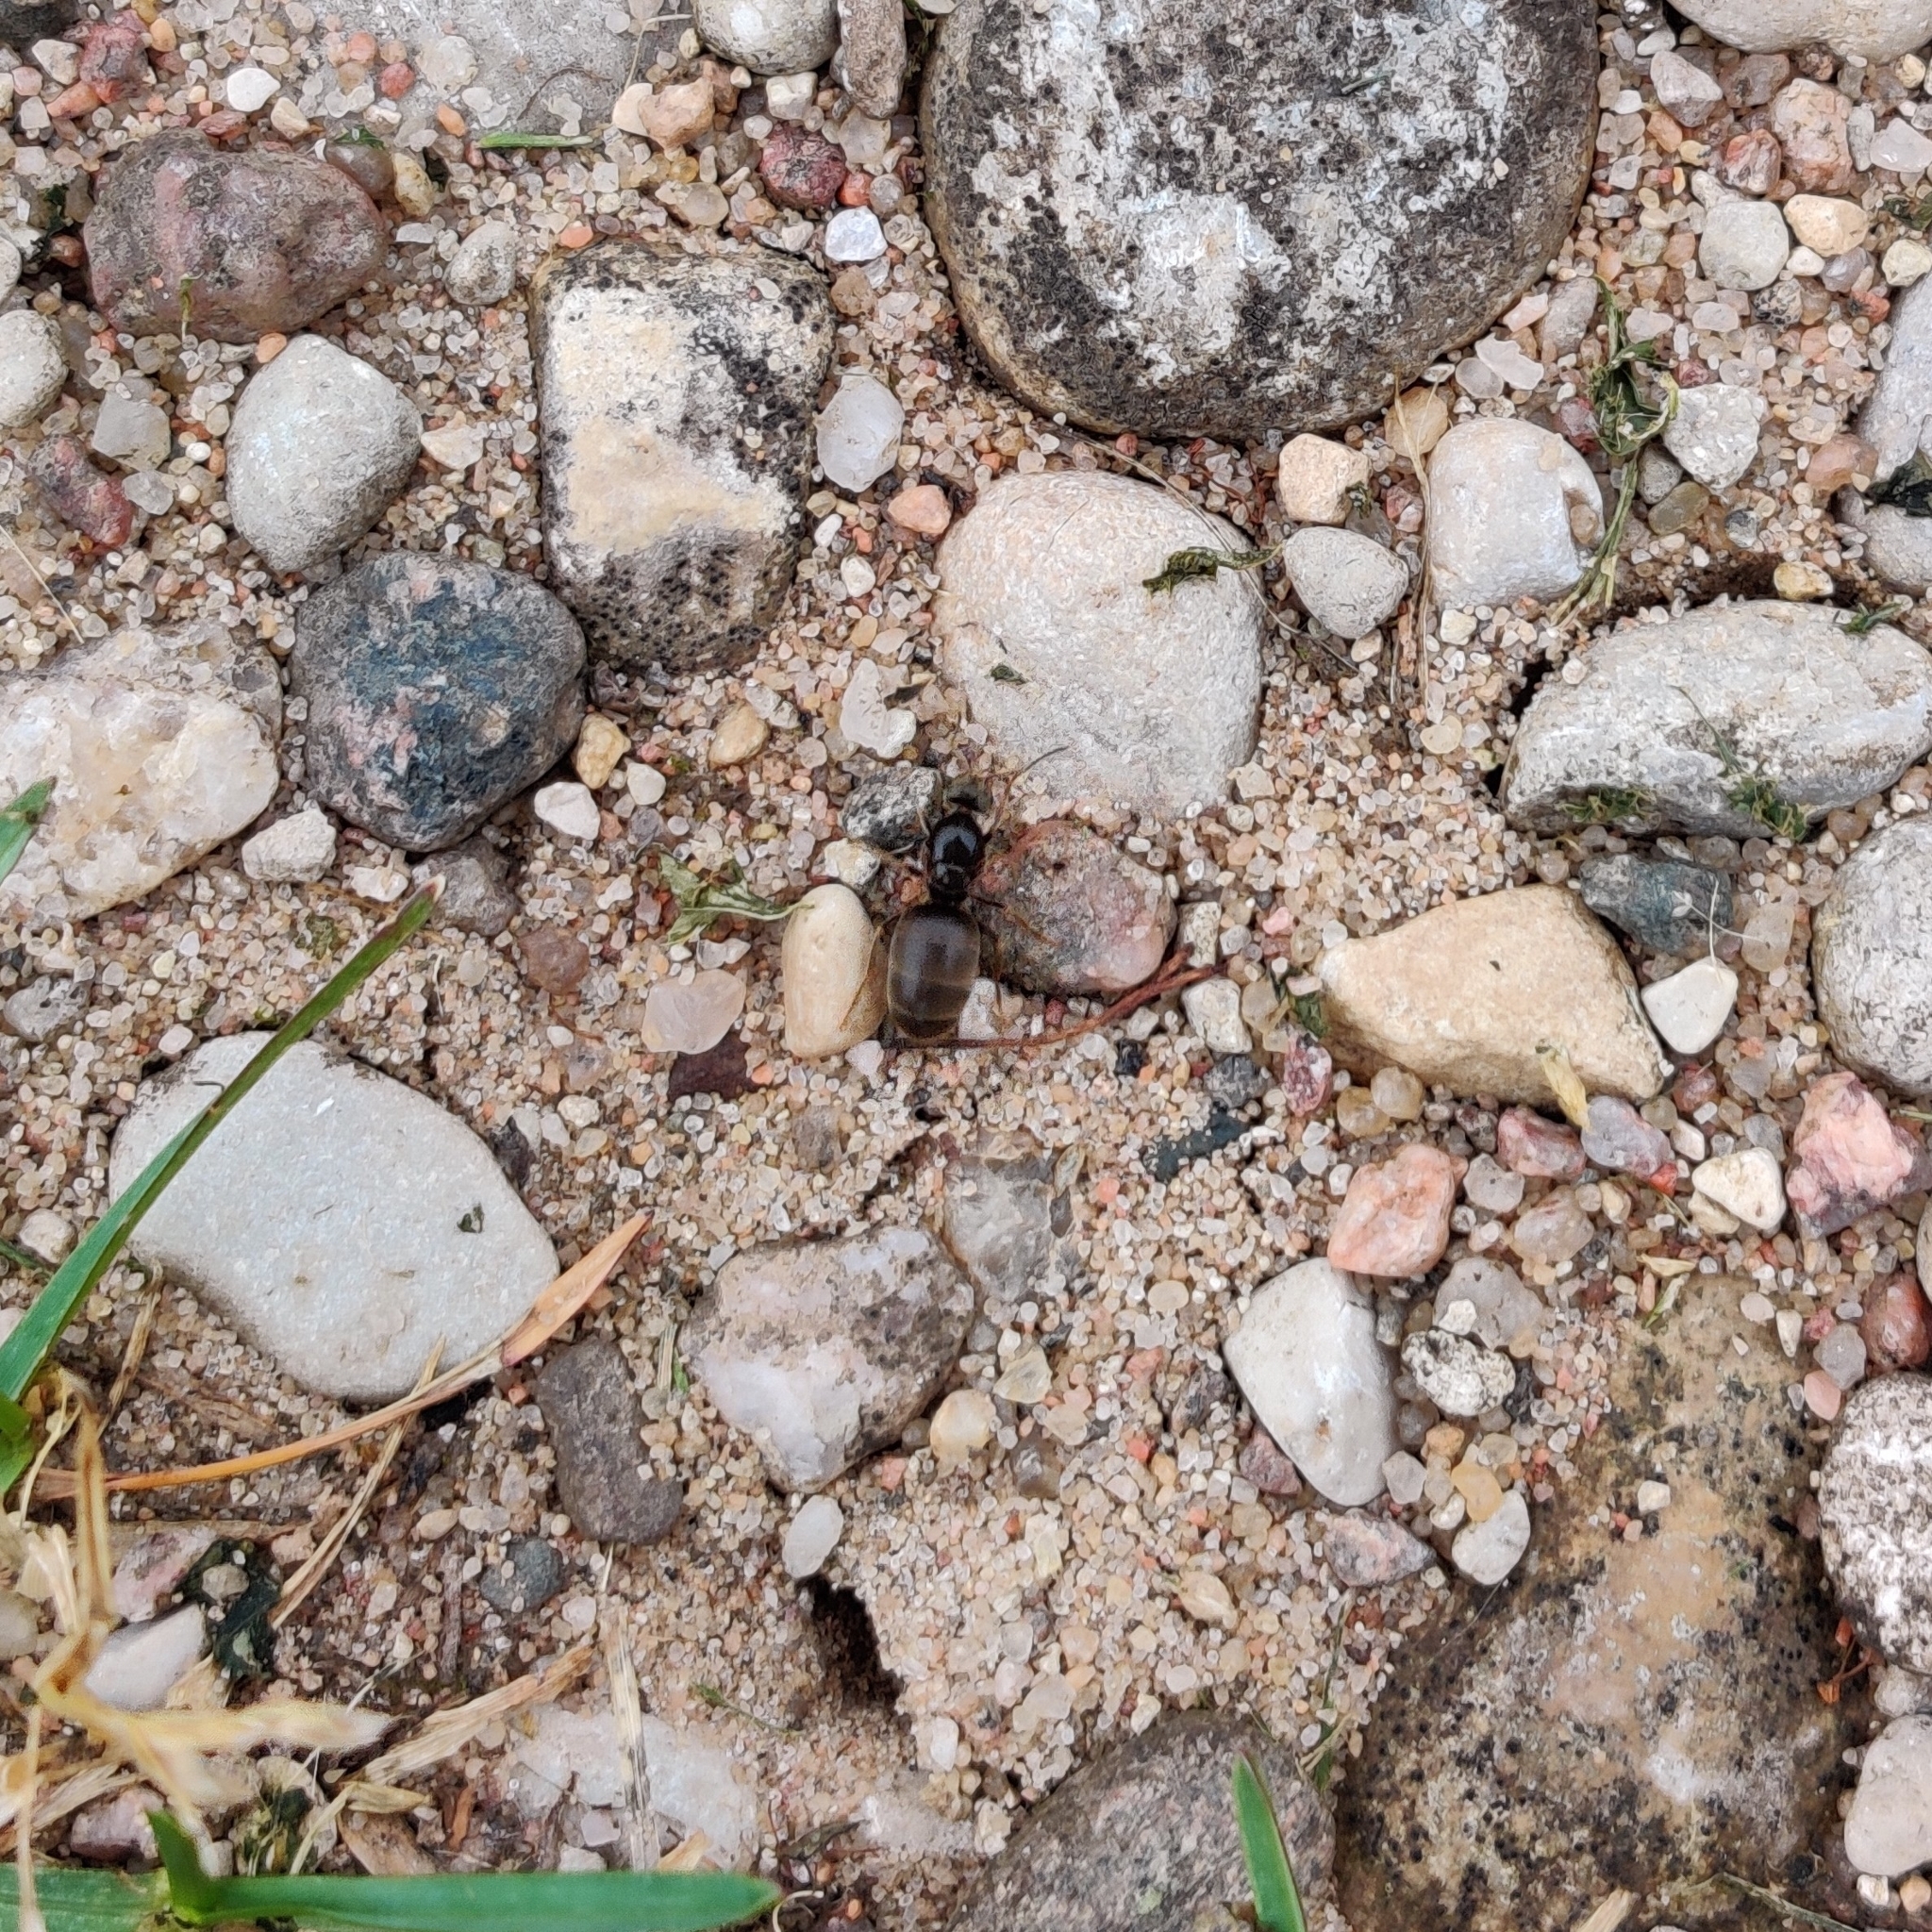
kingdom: Animalia
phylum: Arthropoda
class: Insecta
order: Hymenoptera
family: Formicidae
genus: Lasius
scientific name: Lasius
